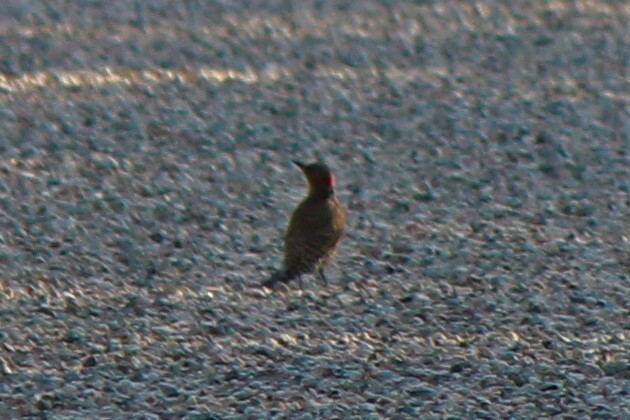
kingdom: Animalia
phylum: Chordata
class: Aves
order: Piciformes
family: Picidae
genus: Colaptes
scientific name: Colaptes auratus
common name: Northern flicker
